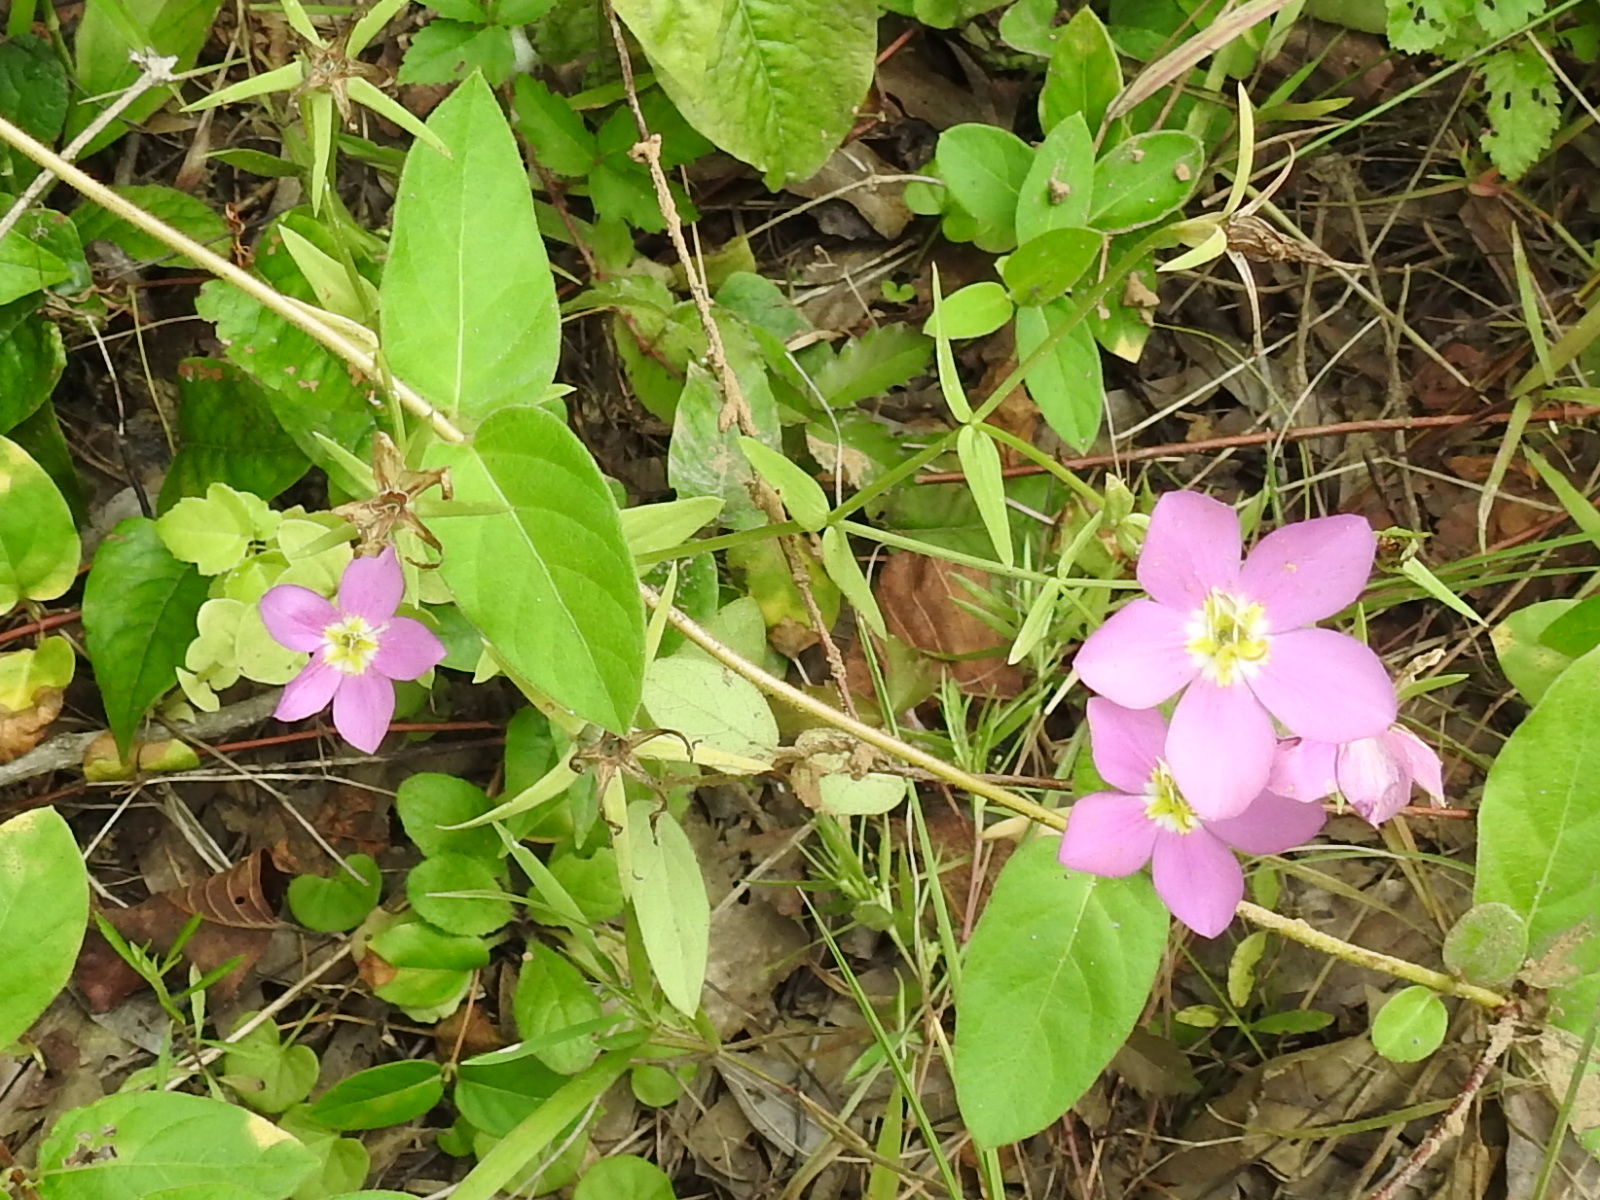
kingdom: Plantae
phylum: Tracheophyta
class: Magnoliopsida
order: Gentianales
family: Gentianaceae
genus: Sabatia
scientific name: Sabatia campestris
